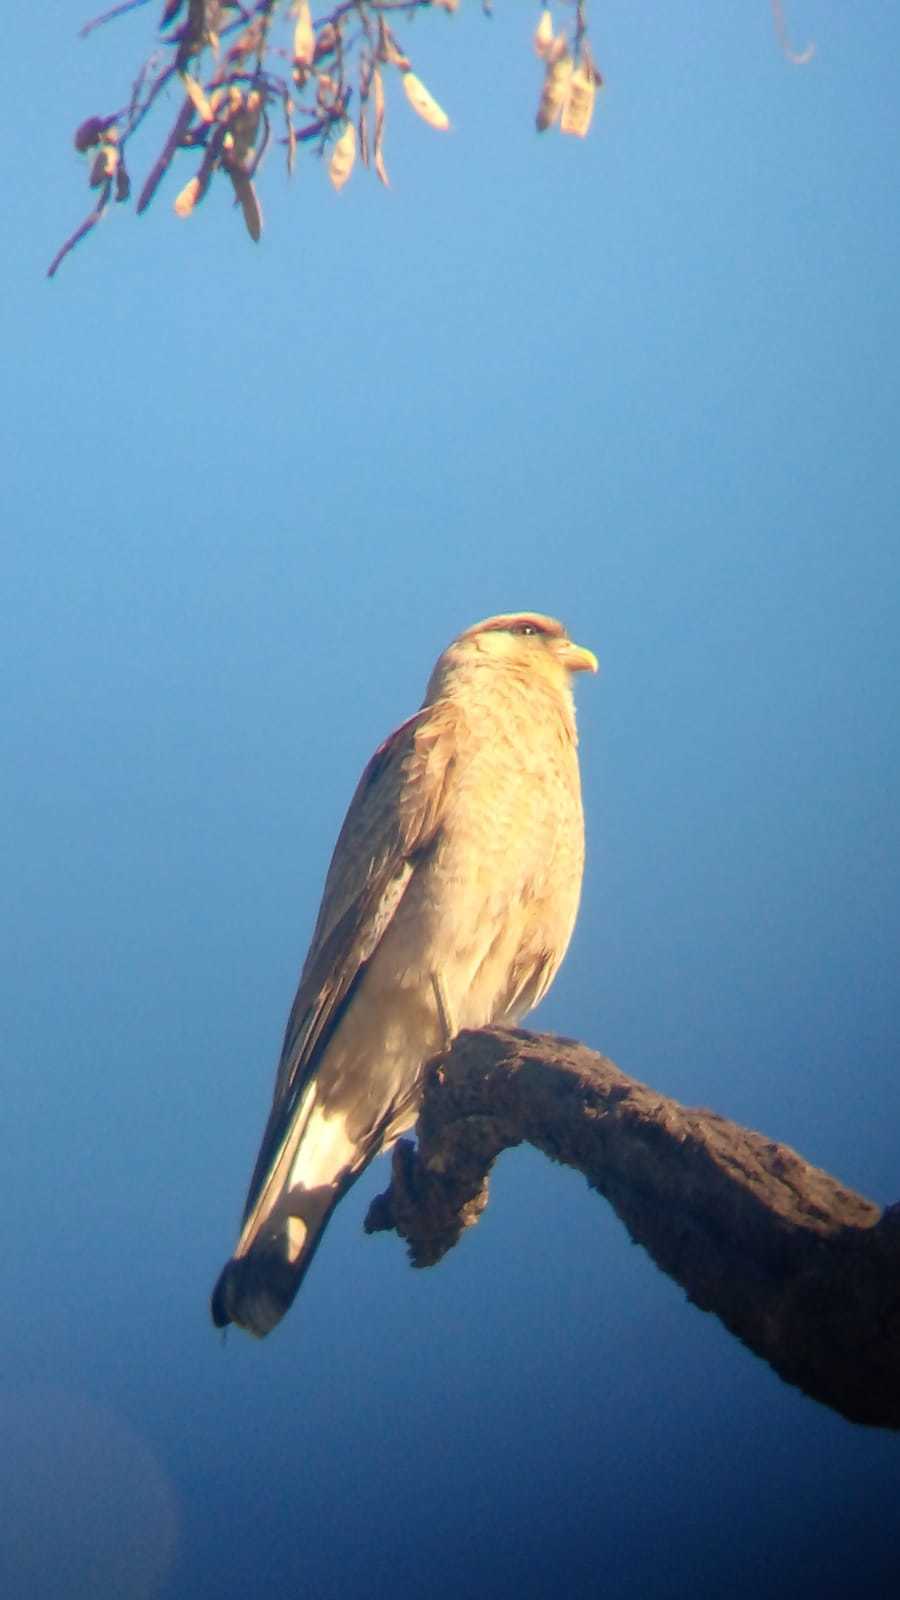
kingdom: Animalia
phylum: Chordata
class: Aves
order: Falconiformes
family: Falconidae
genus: Daptrius
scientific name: Daptrius
